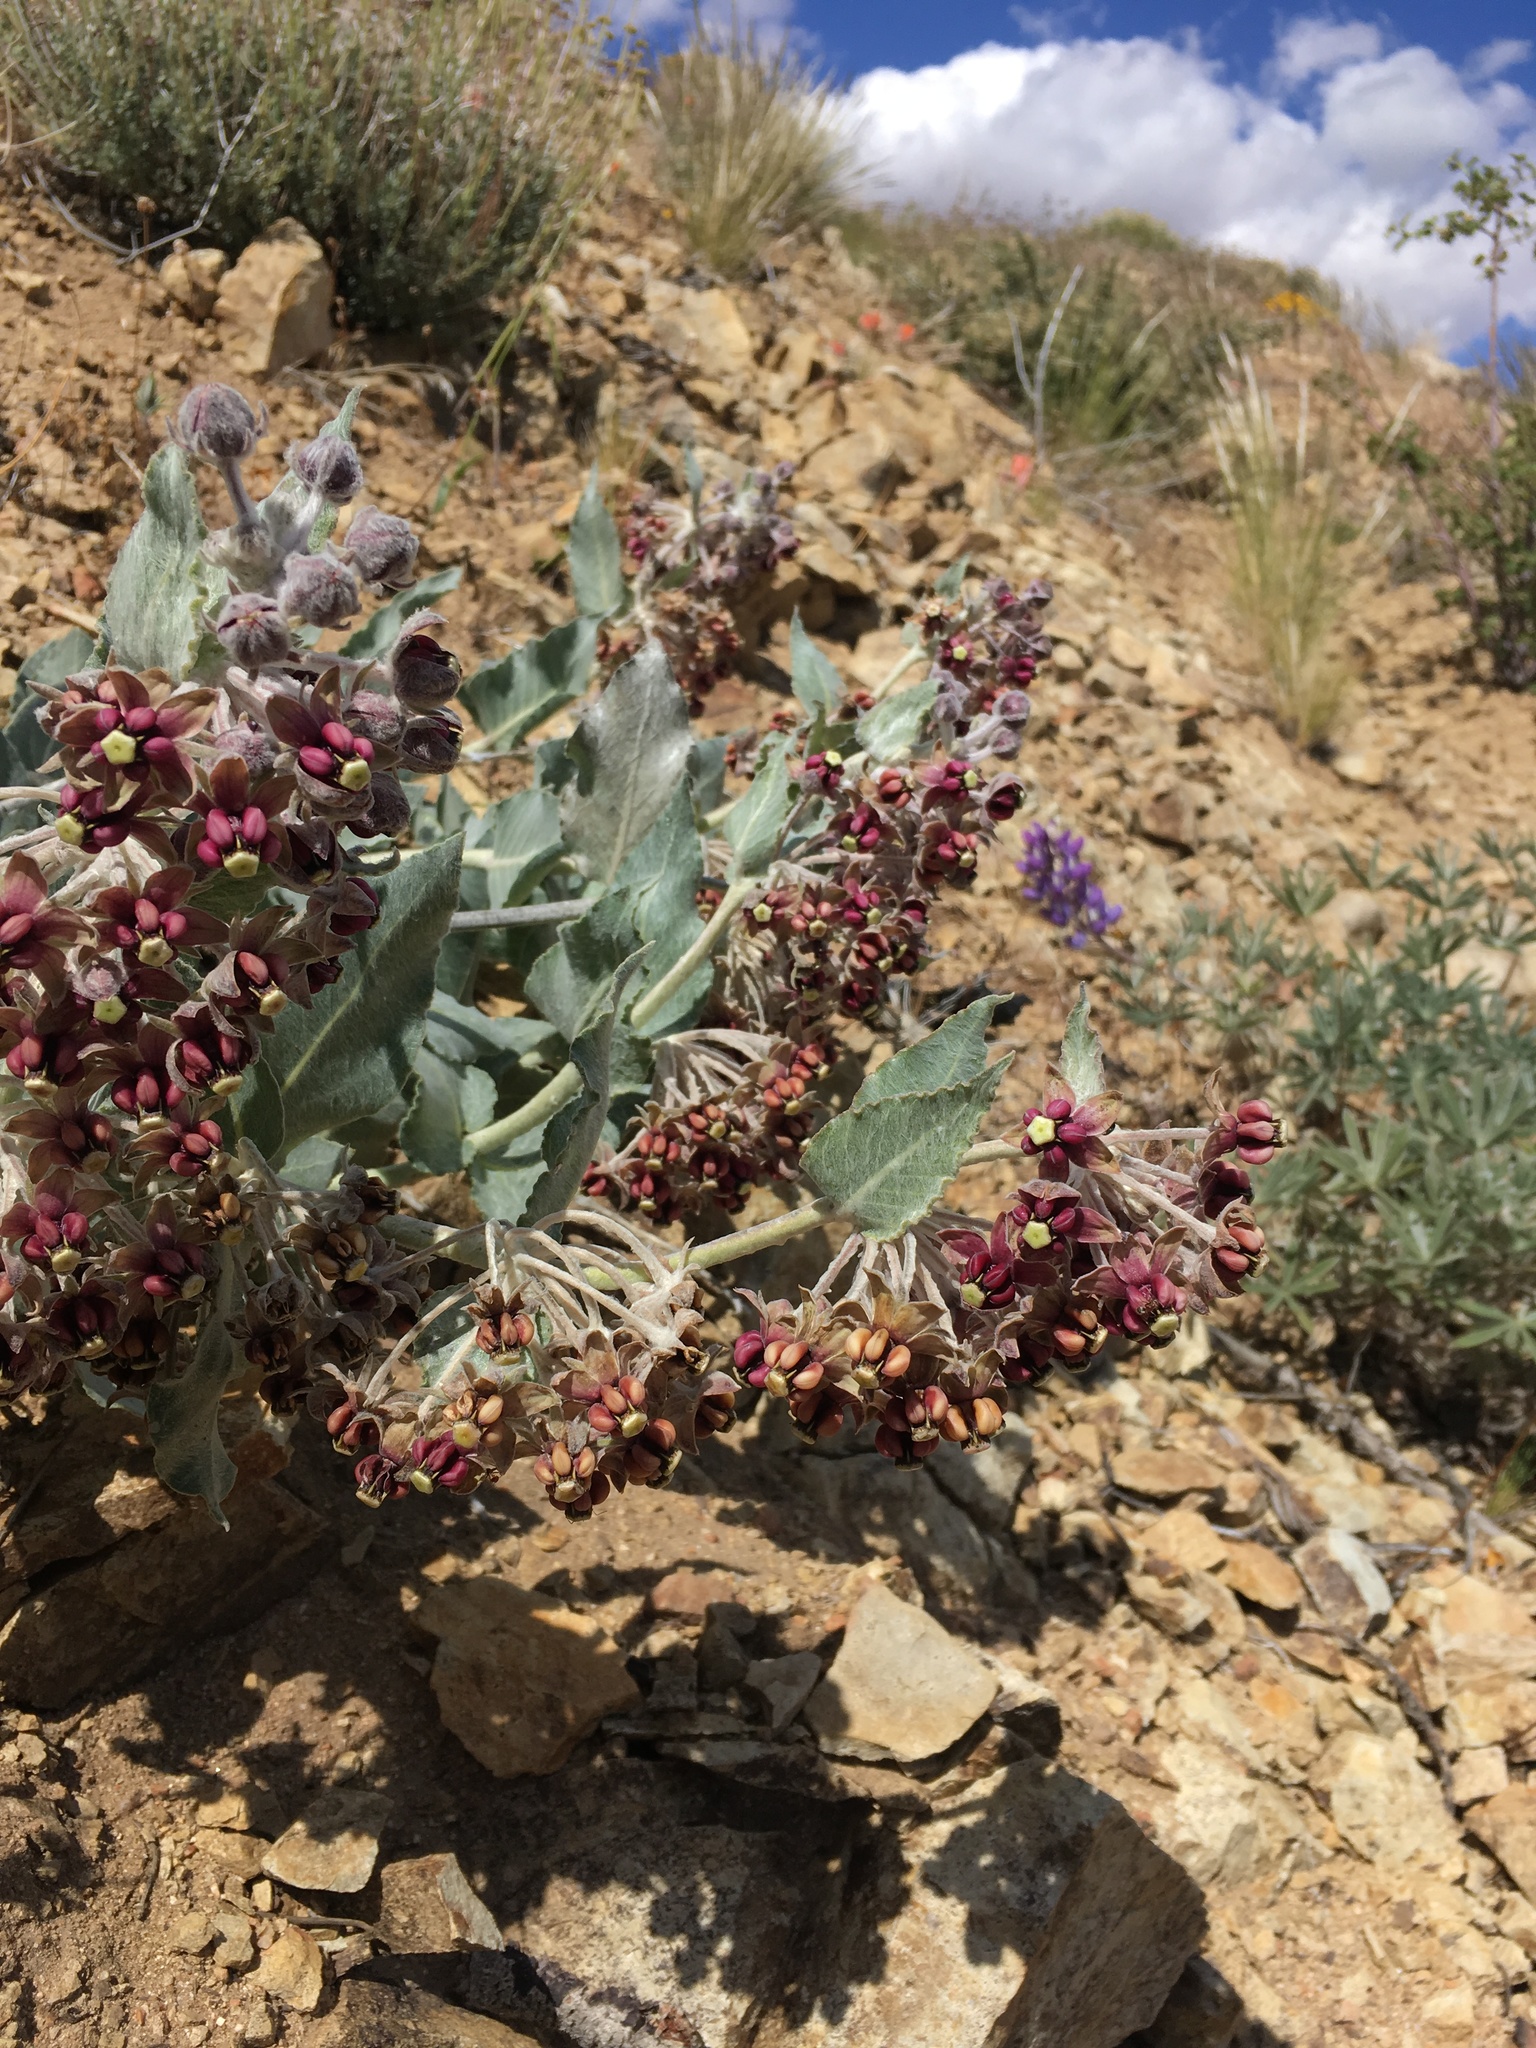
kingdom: Plantae
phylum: Tracheophyta
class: Magnoliopsida
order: Gentianales
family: Apocynaceae
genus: Asclepias
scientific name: Asclepias californica
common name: California milkweed
